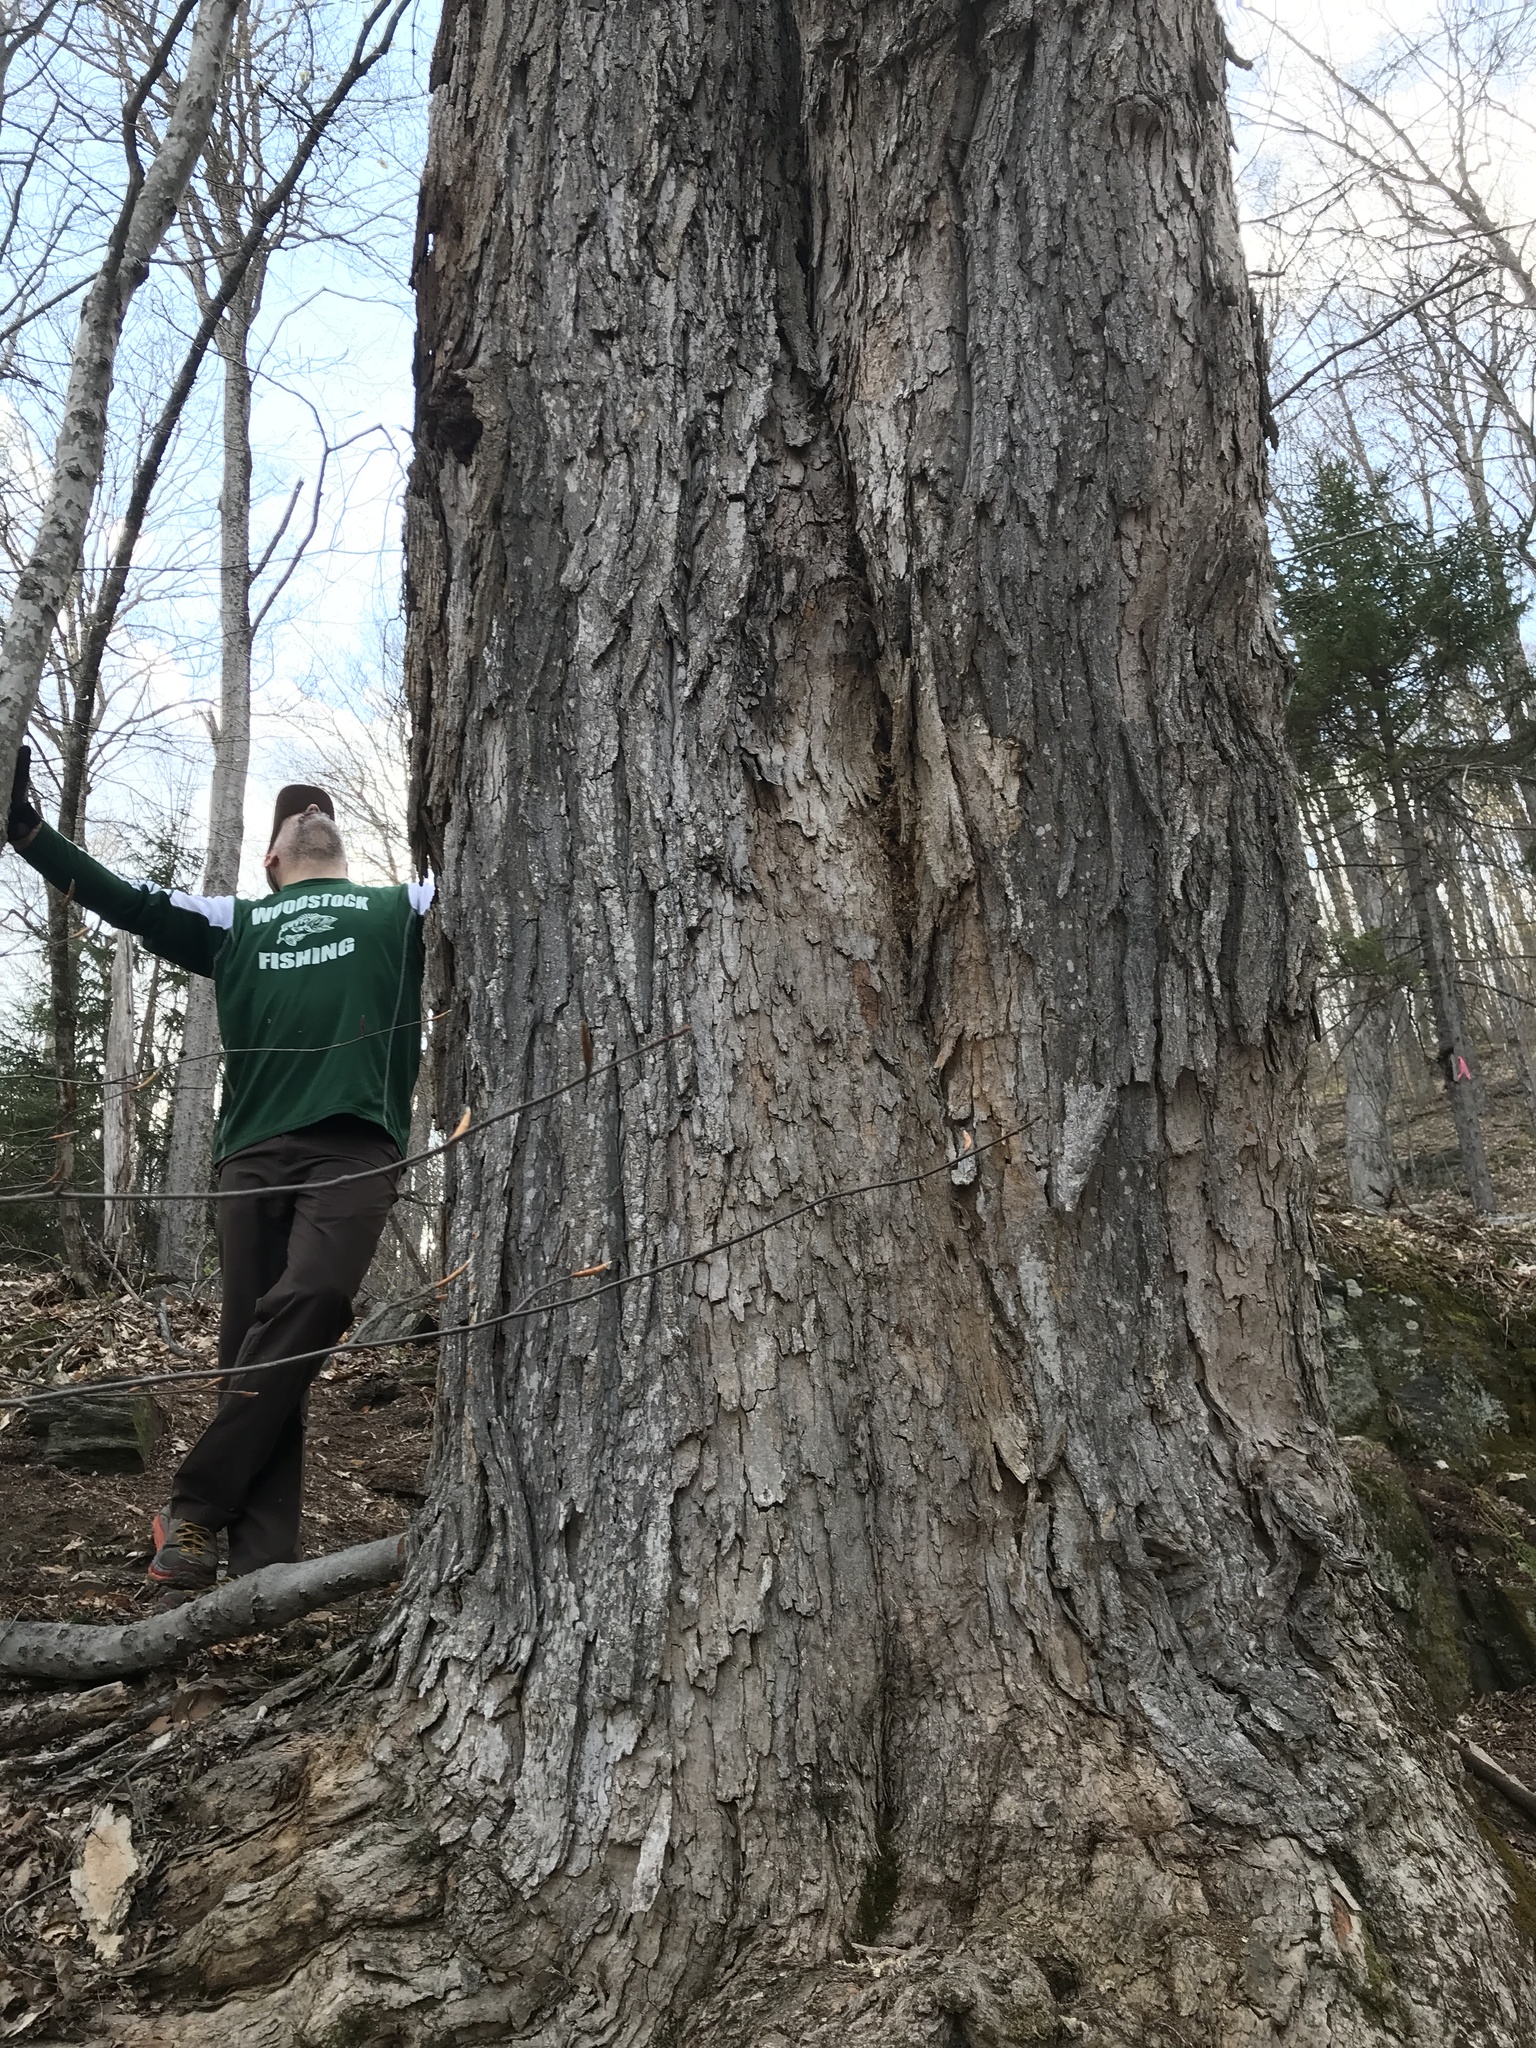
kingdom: Plantae
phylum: Tracheophyta
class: Magnoliopsida
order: Sapindales
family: Sapindaceae
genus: Acer
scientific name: Acer saccharum
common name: Sugar maple
